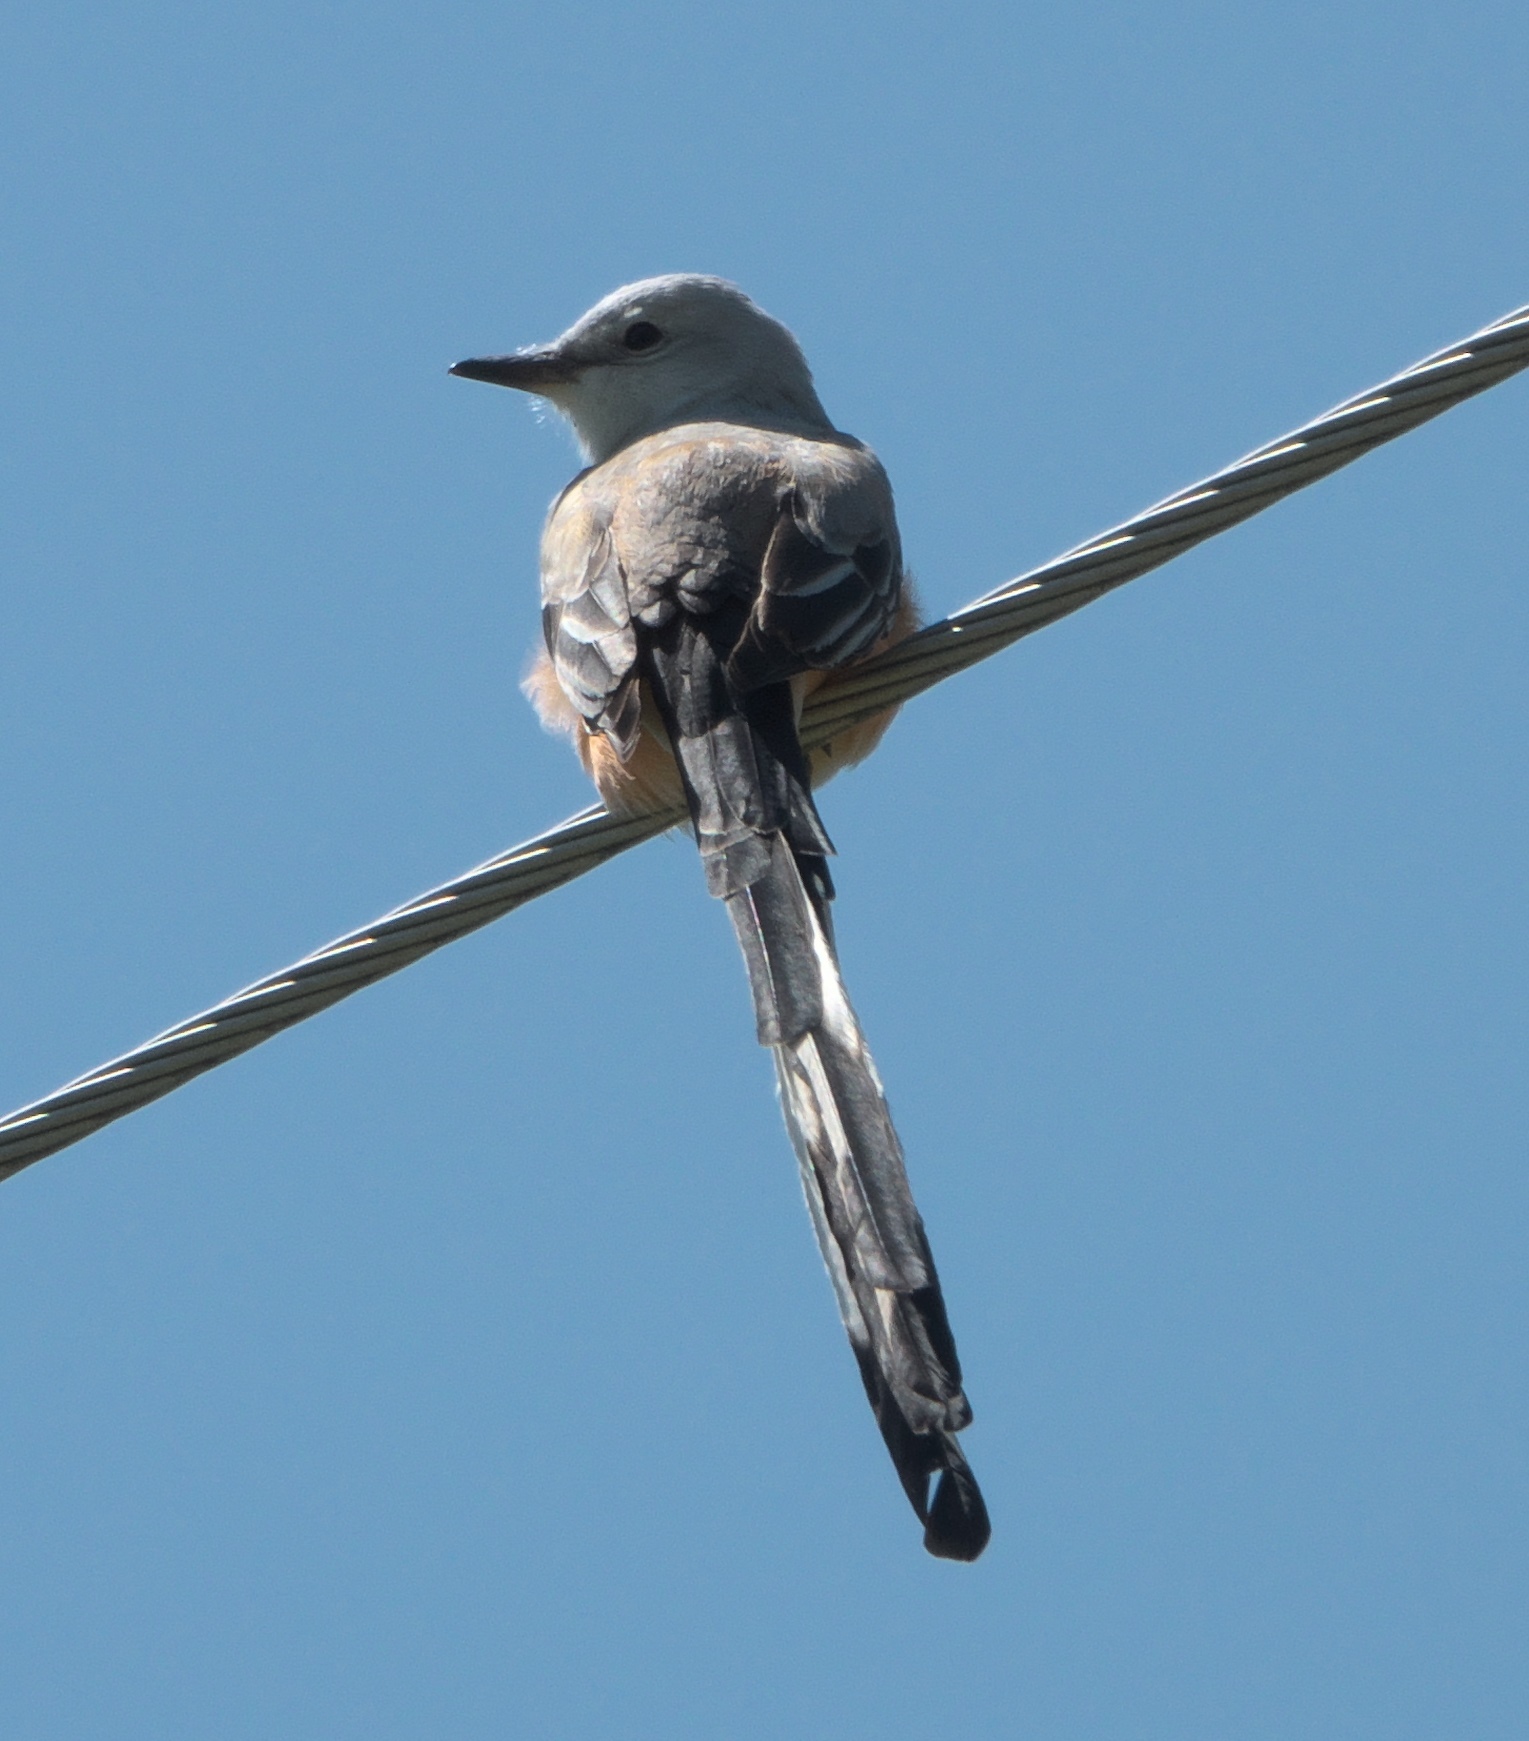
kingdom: Animalia
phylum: Chordata
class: Aves
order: Passeriformes
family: Tyrannidae
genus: Tyrannus
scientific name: Tyrannus forficatus
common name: Scissor-tailed flycatcher
